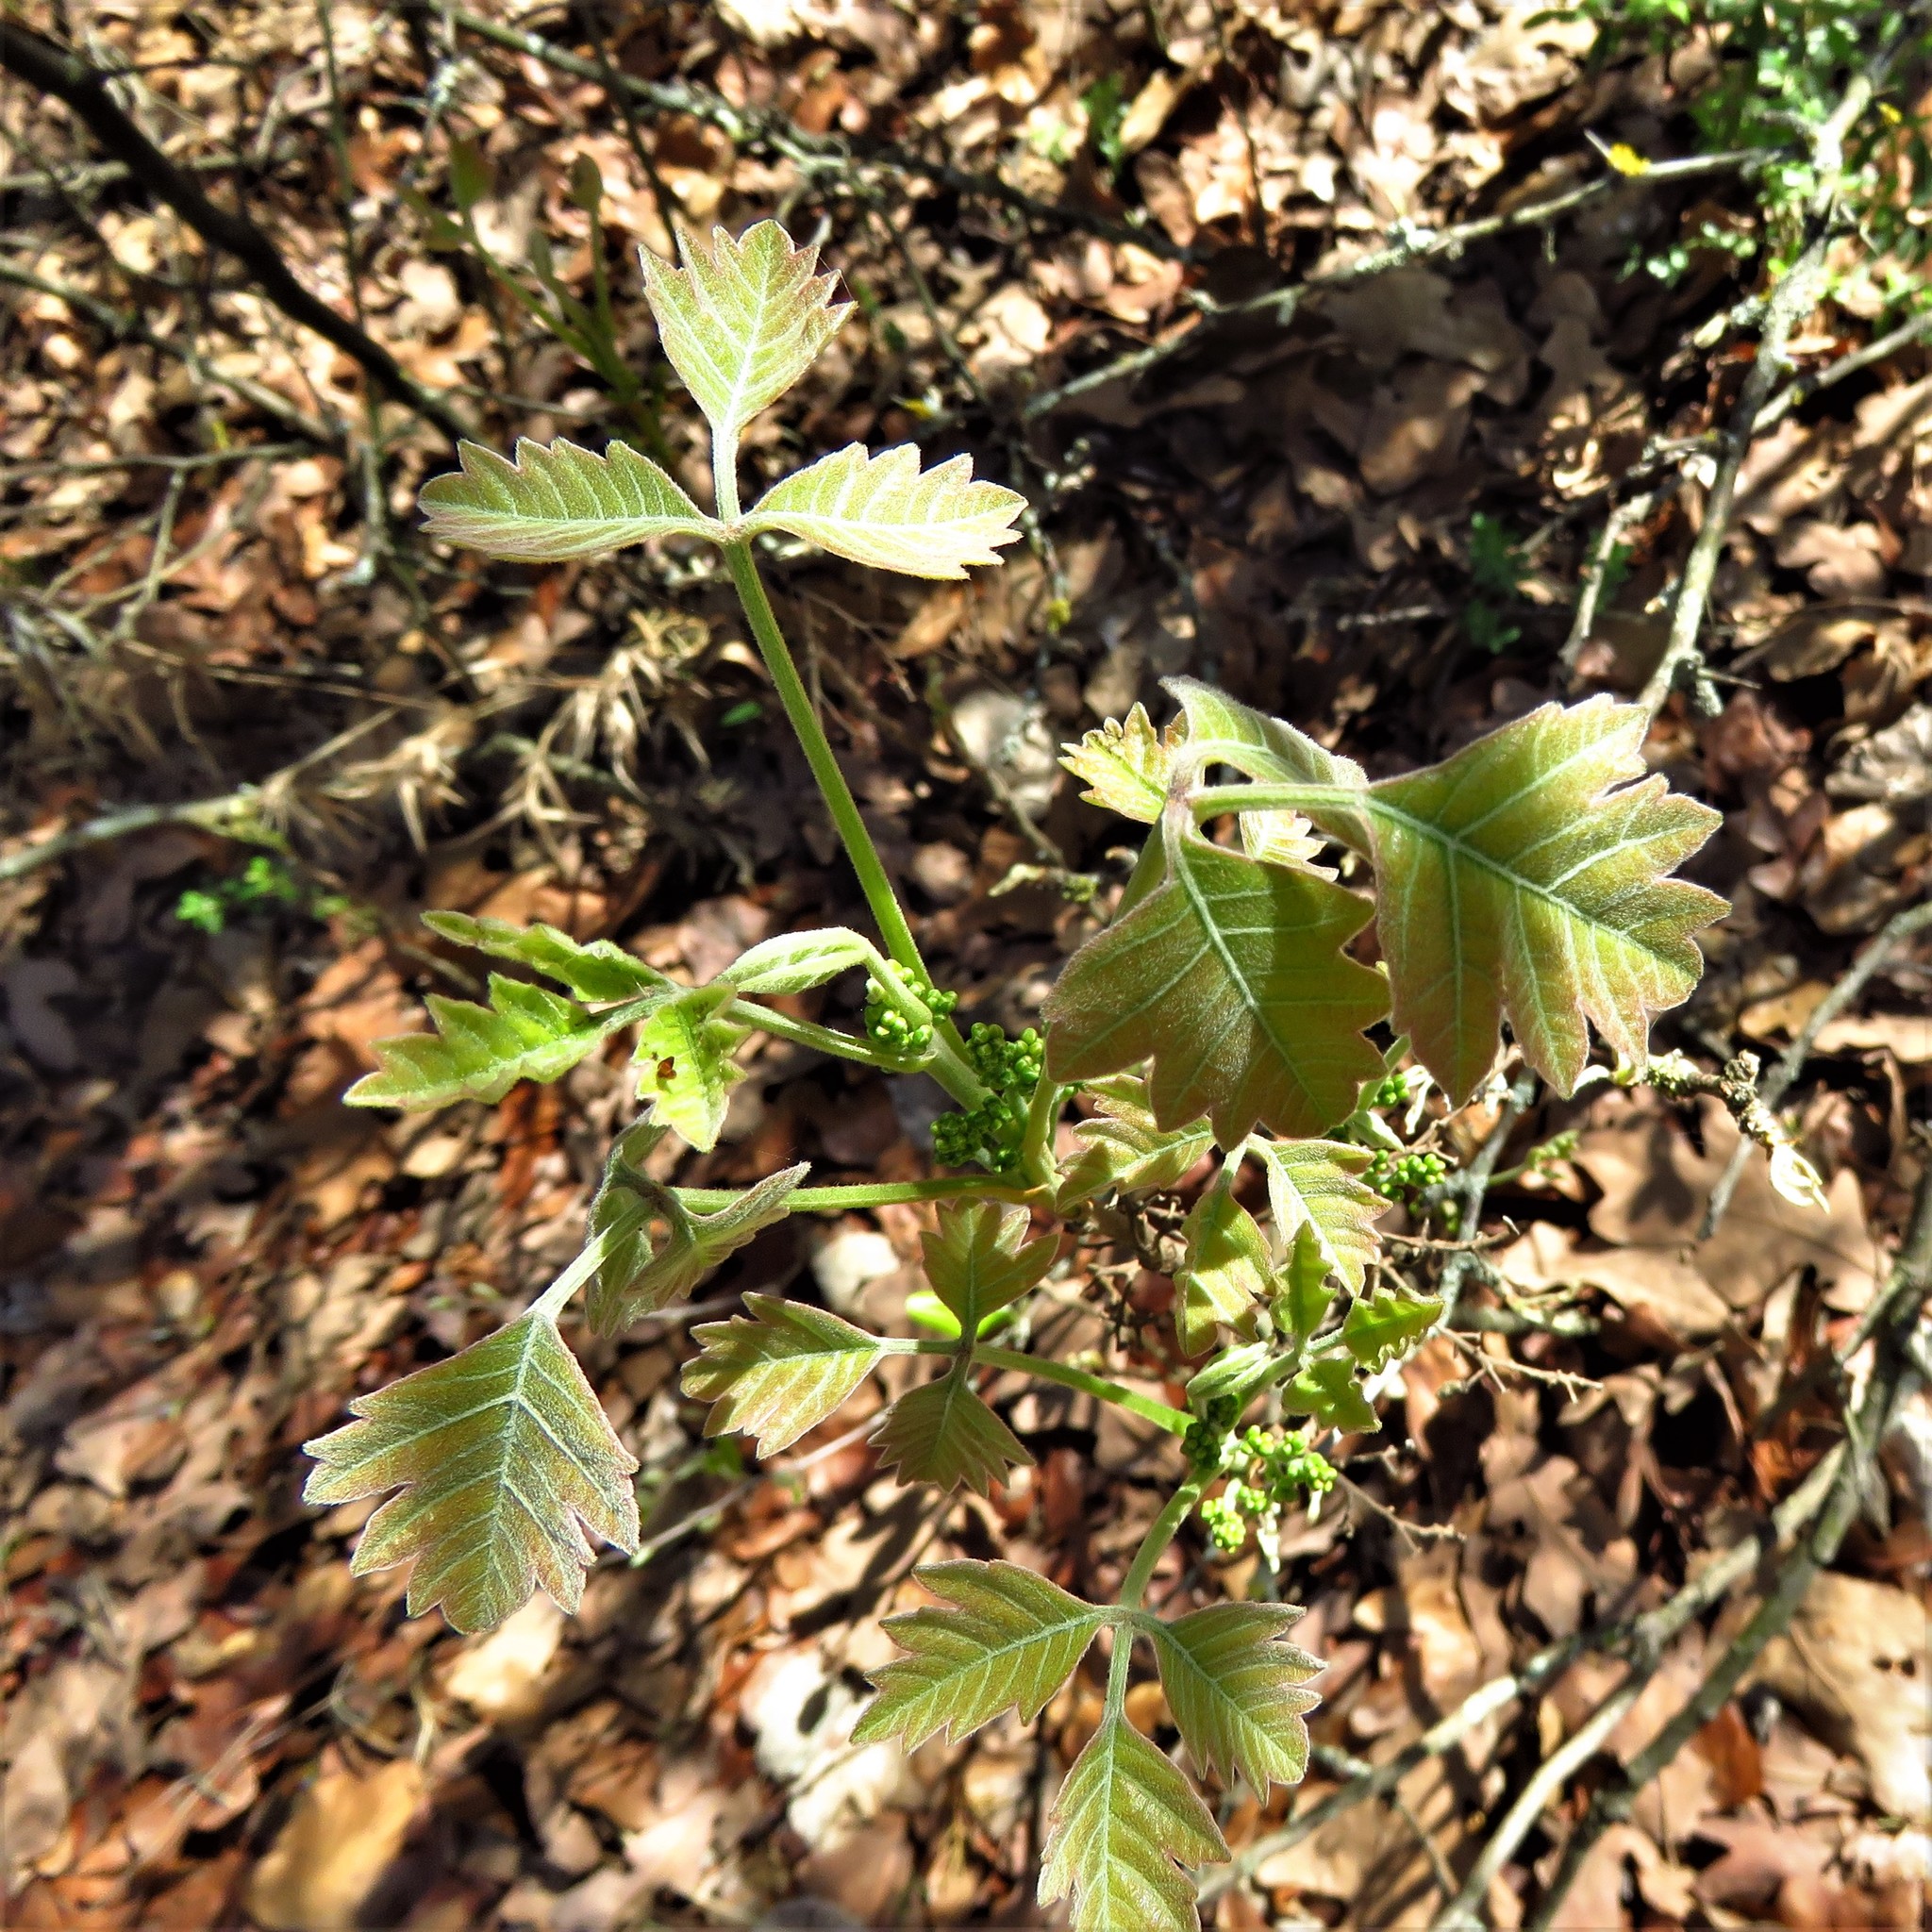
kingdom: Plantae
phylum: Tracheophyta
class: Magnoliopsida
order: Sapindales
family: Anacardiaceae
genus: Toxicodendron
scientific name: Toxicodendron radicans
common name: Poison ivy
